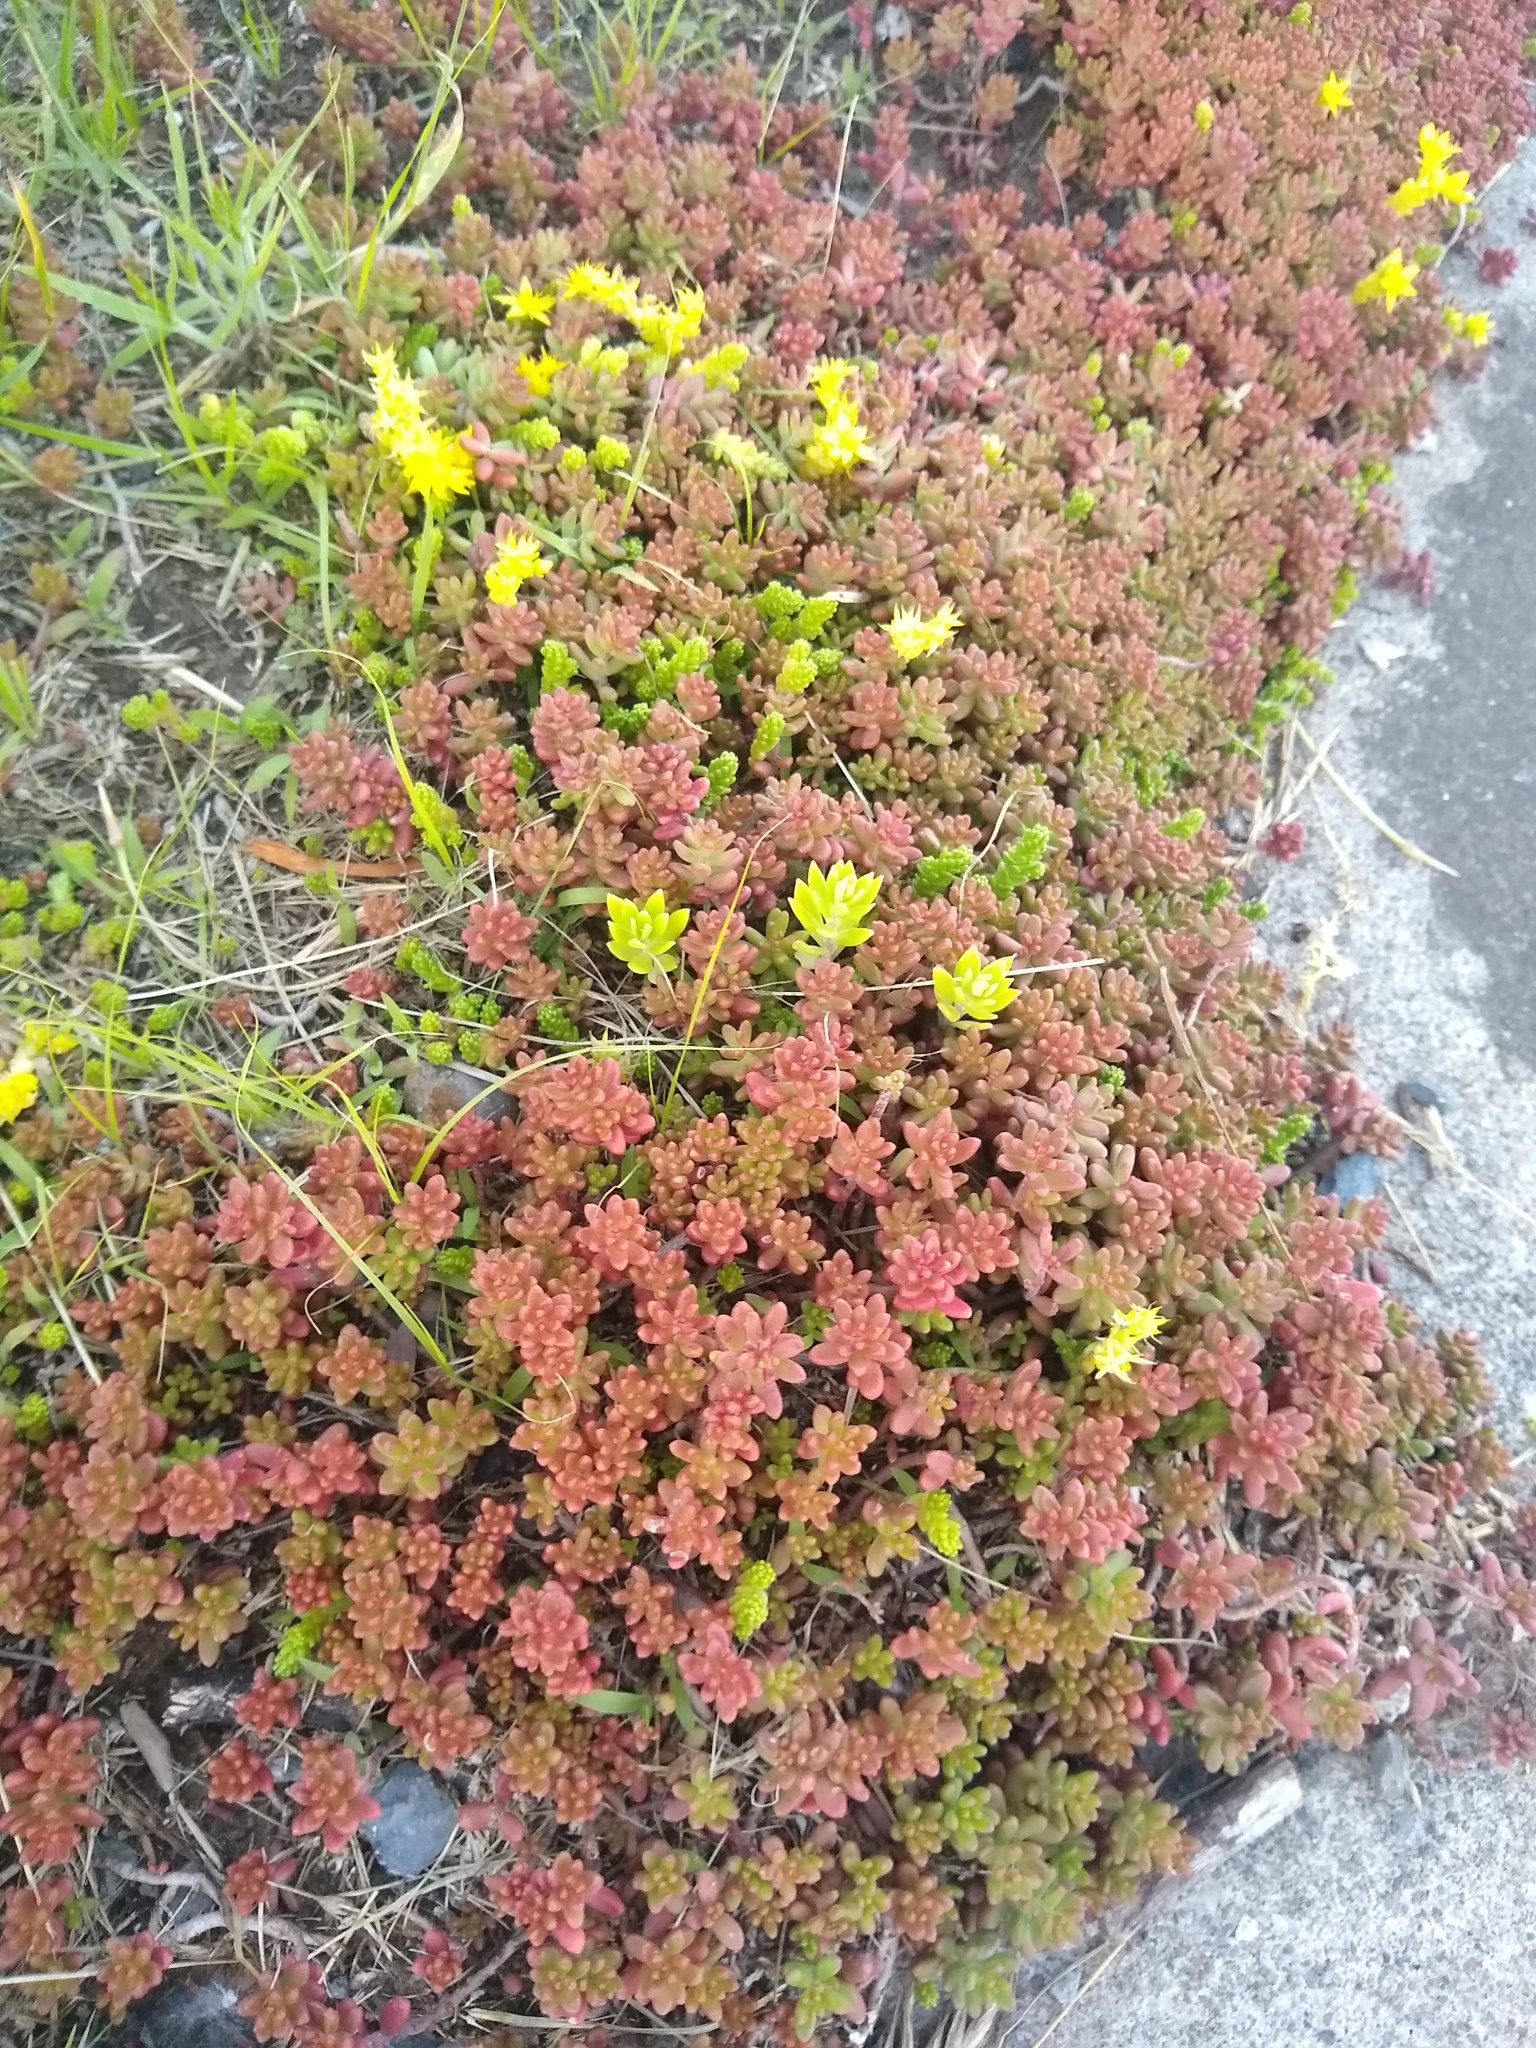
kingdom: Plantae
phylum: Tracheophyta
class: Magnoliopsida
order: Saxifragales
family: Crassulaceae
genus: Sedum
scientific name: Sedum acre
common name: Biting stonecrop
